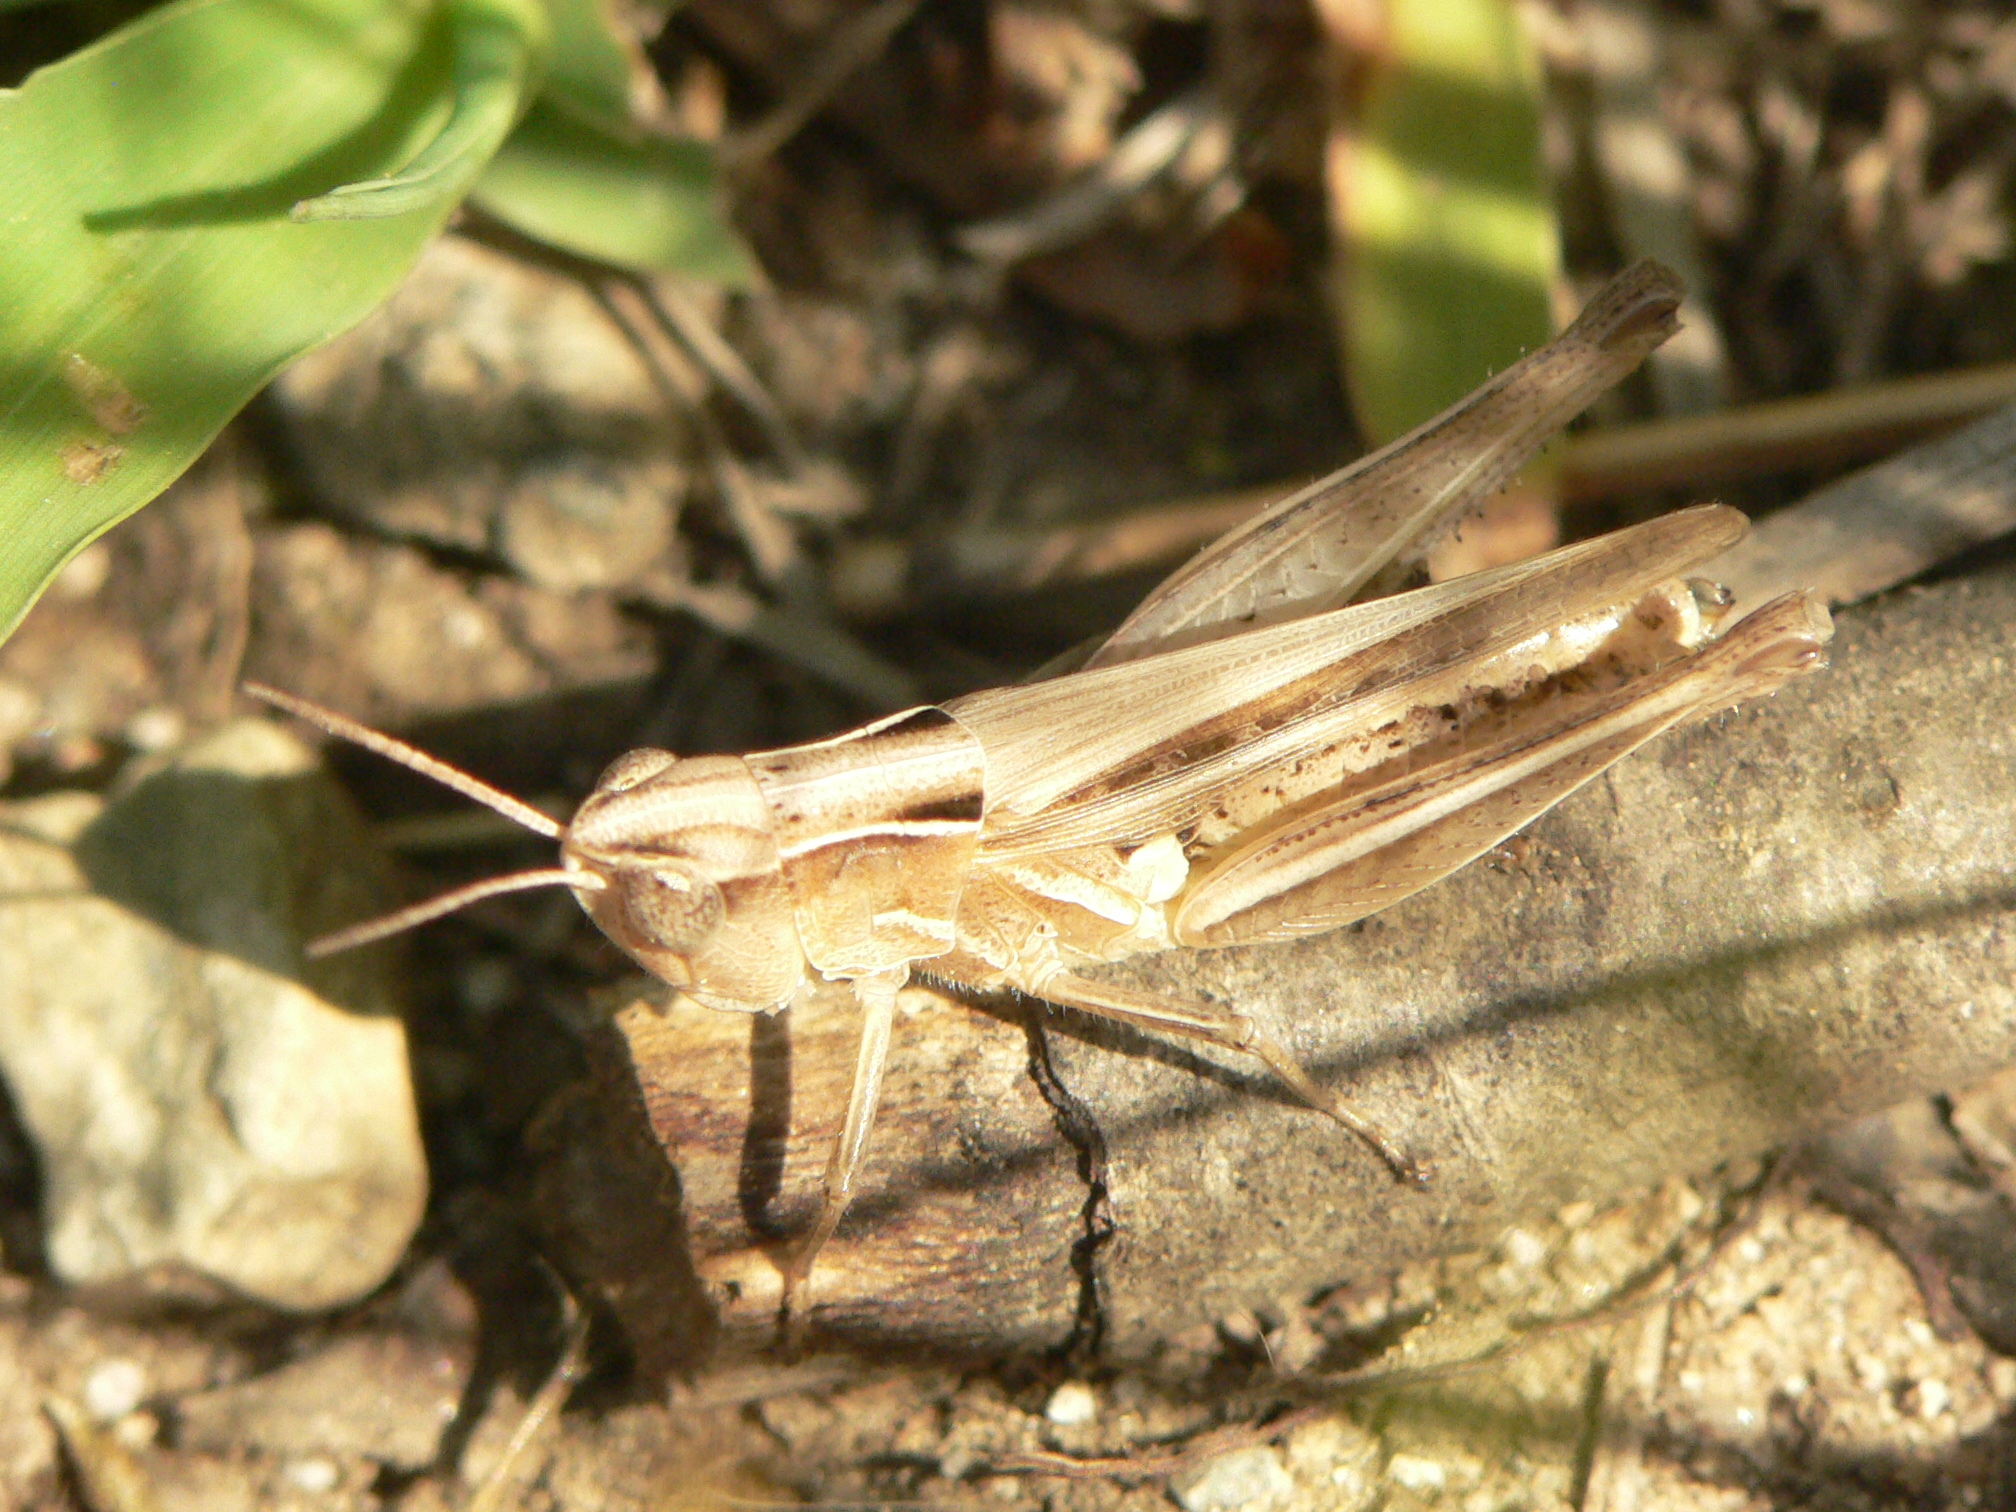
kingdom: Animalia
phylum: Arthropoda
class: Insecta
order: Orthoptera
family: Acrididae
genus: Orphulella
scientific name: Orphulella speciosa
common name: Pasture grasshopper
